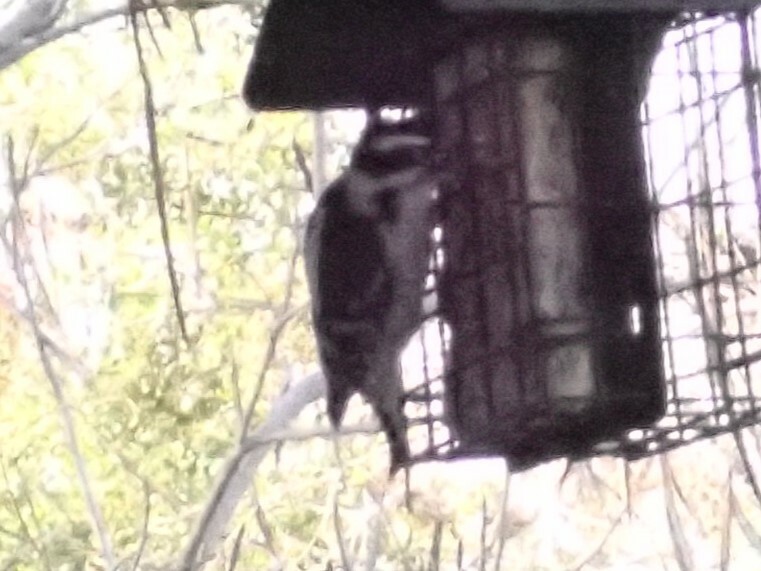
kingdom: Animalia
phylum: Chordata
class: Aves
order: Piciformes
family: Picidae
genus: Dryobates
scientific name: Dryobates pubescens
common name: Downy woodpecker
